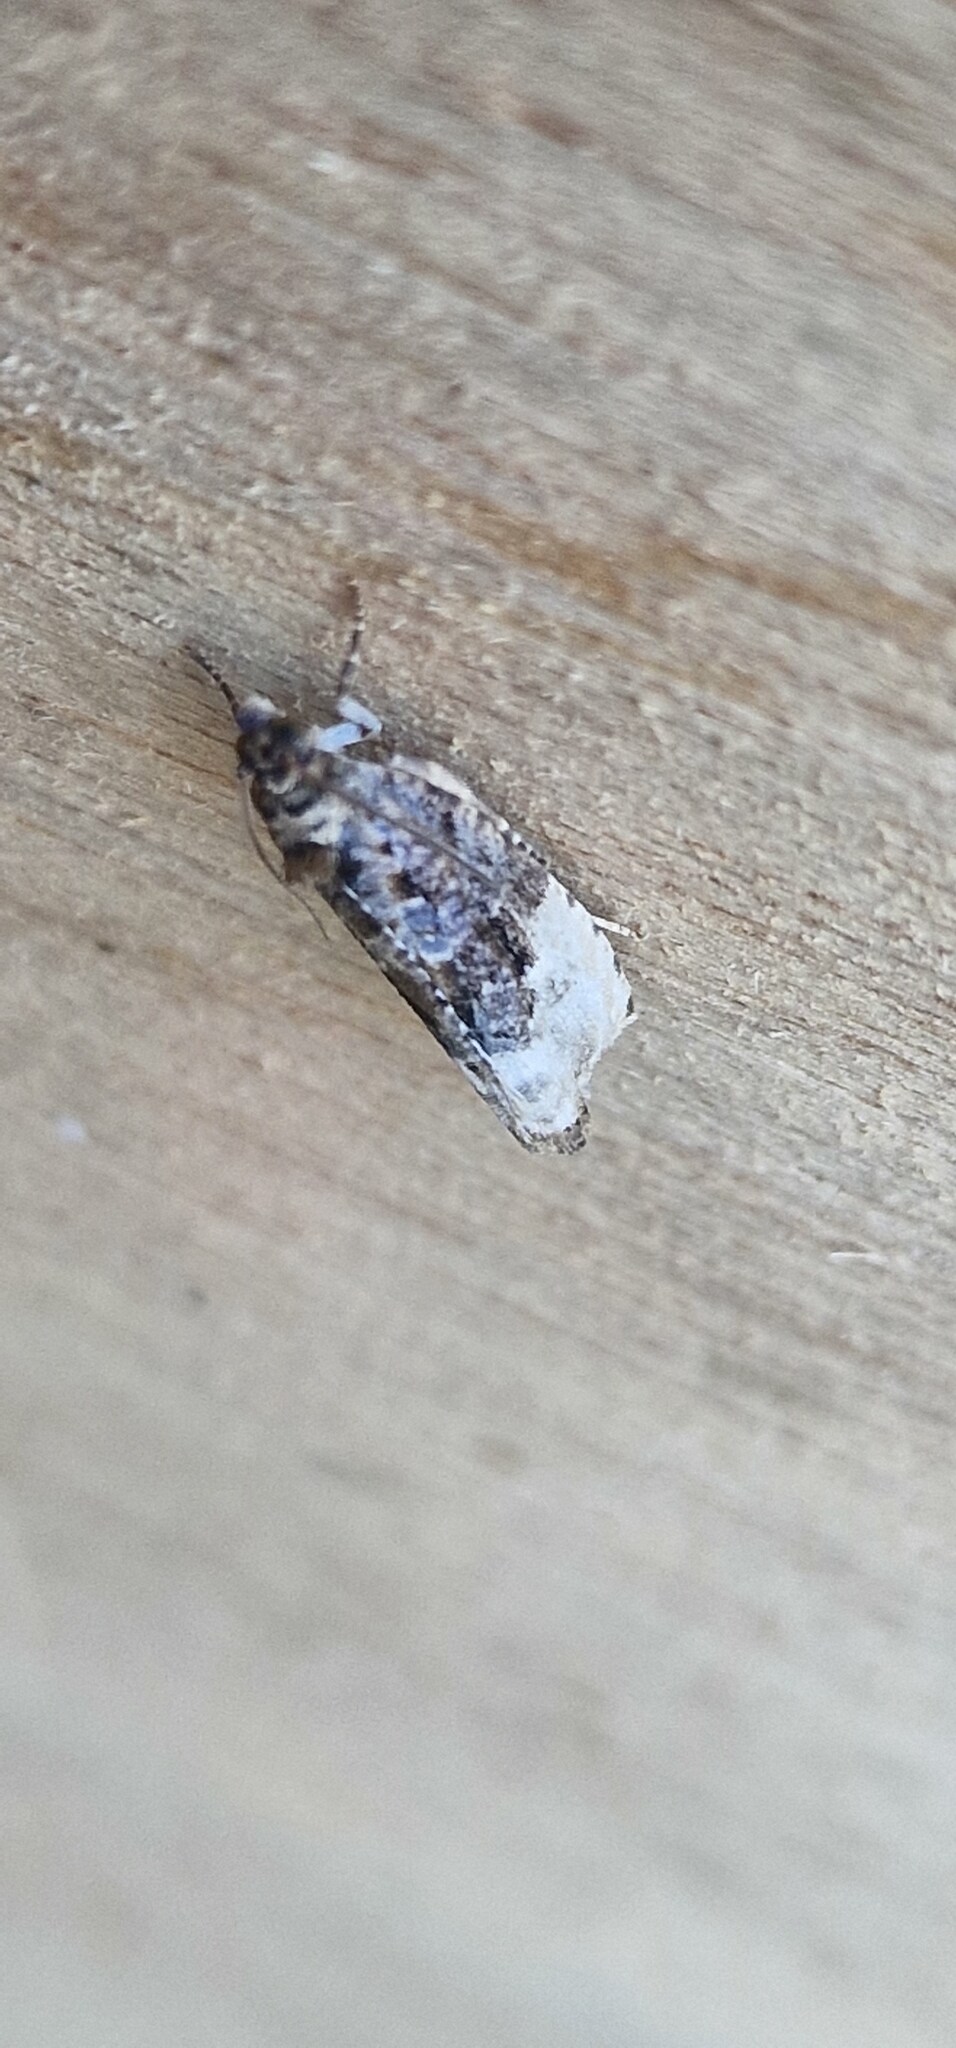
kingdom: Animalia
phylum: Arthropoda
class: Insecta
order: Lepidoptera
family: Tortricidae
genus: Hedya
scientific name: Hedya nubiferana
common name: Marbled orchard tortrix
